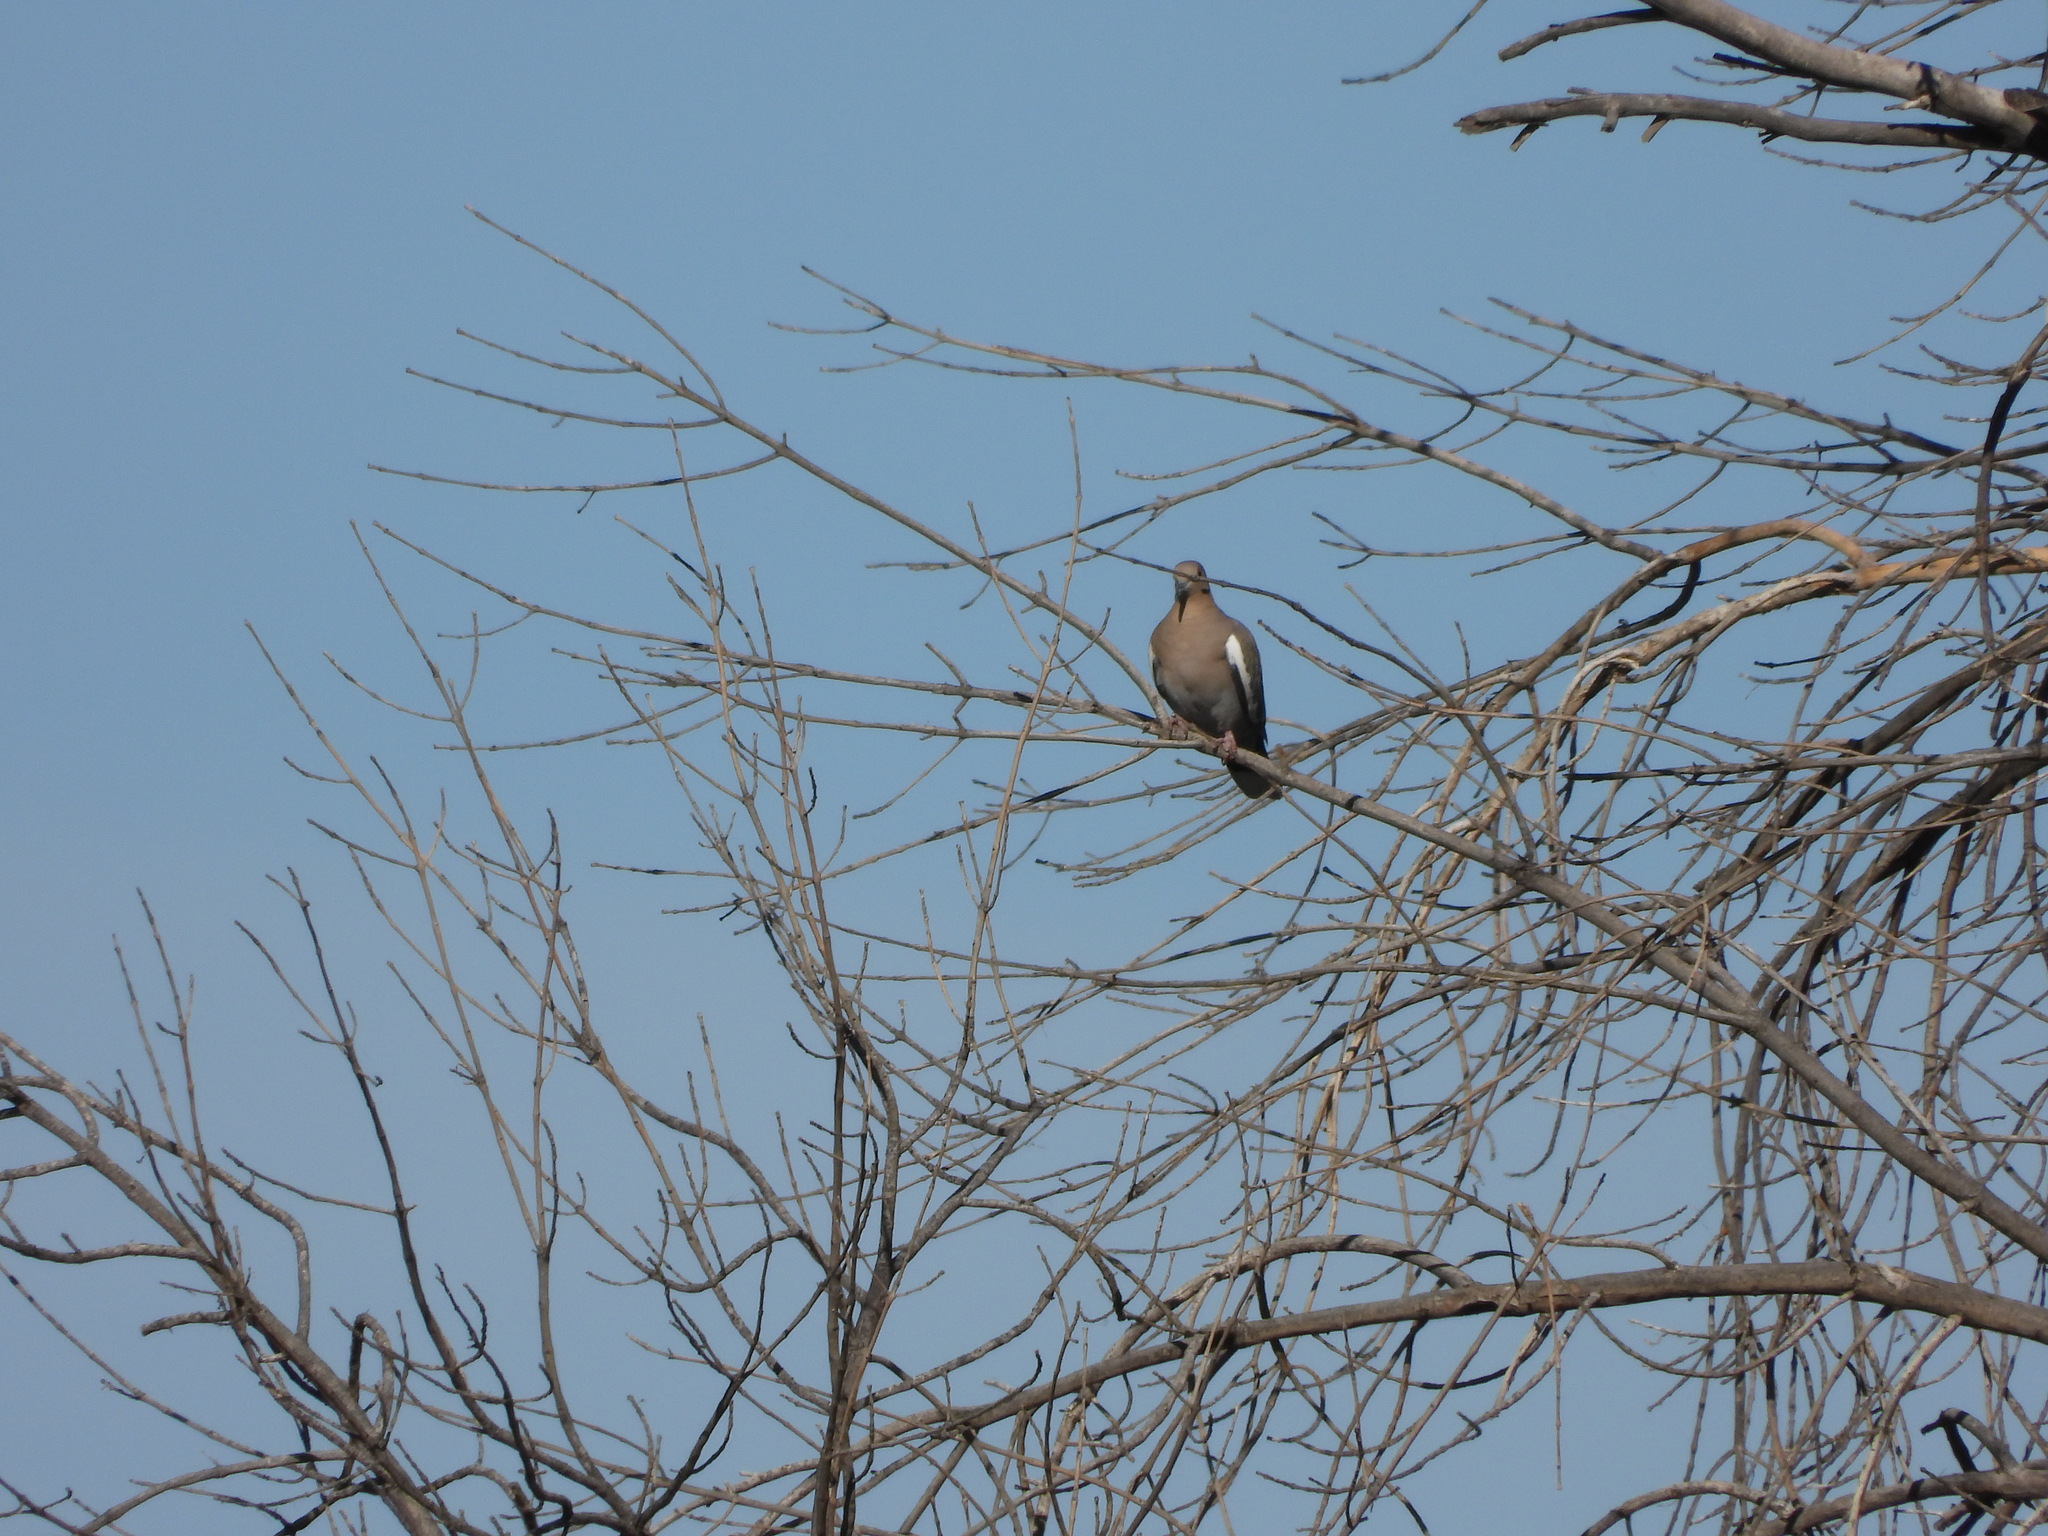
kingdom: Animalia
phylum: Chordata
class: Aves
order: Columbiformes
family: Columbidae
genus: Zenaida
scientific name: Zenaida asiatica
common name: White-winged dove
